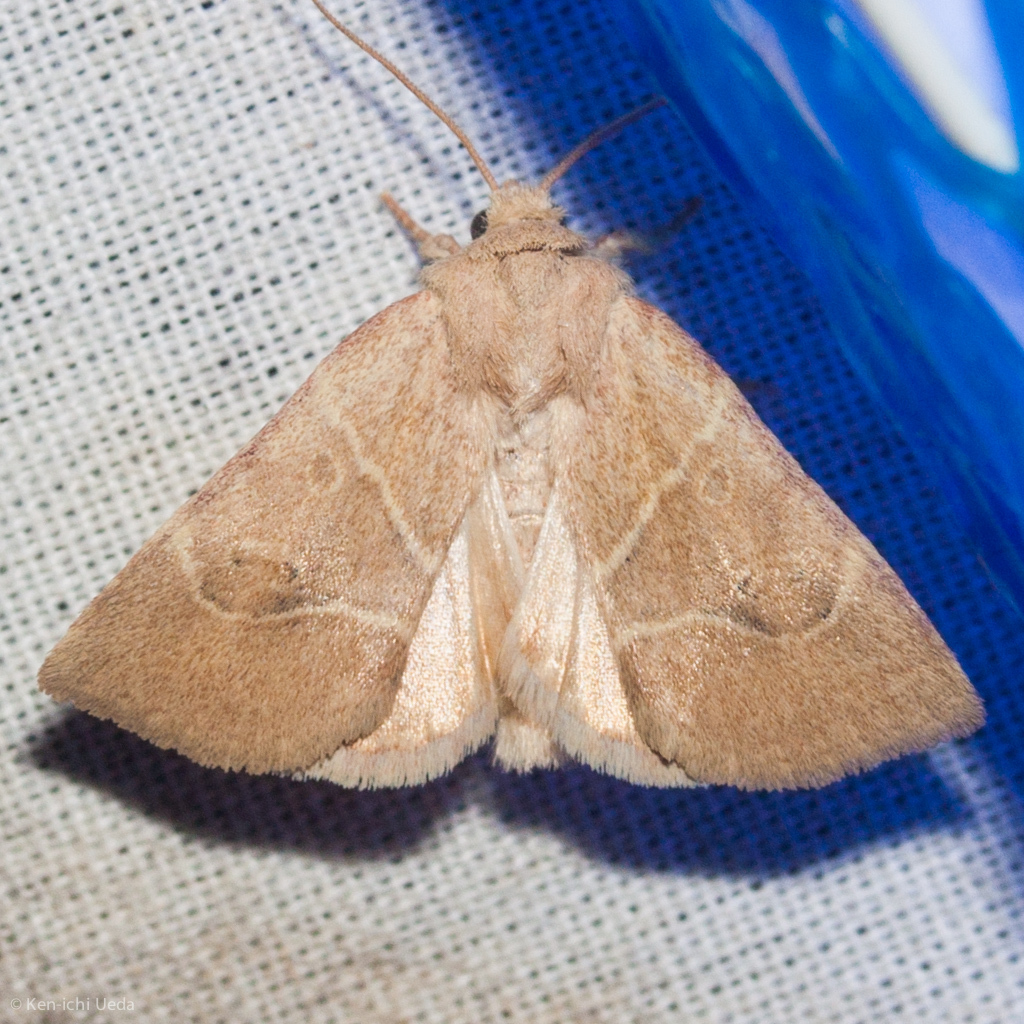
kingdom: Animalia
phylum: Arthropoda
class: Insecta
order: Lepidoptera
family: Noctuidae
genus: Cosmia
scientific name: Cosmia calami
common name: American dun-bar moth
